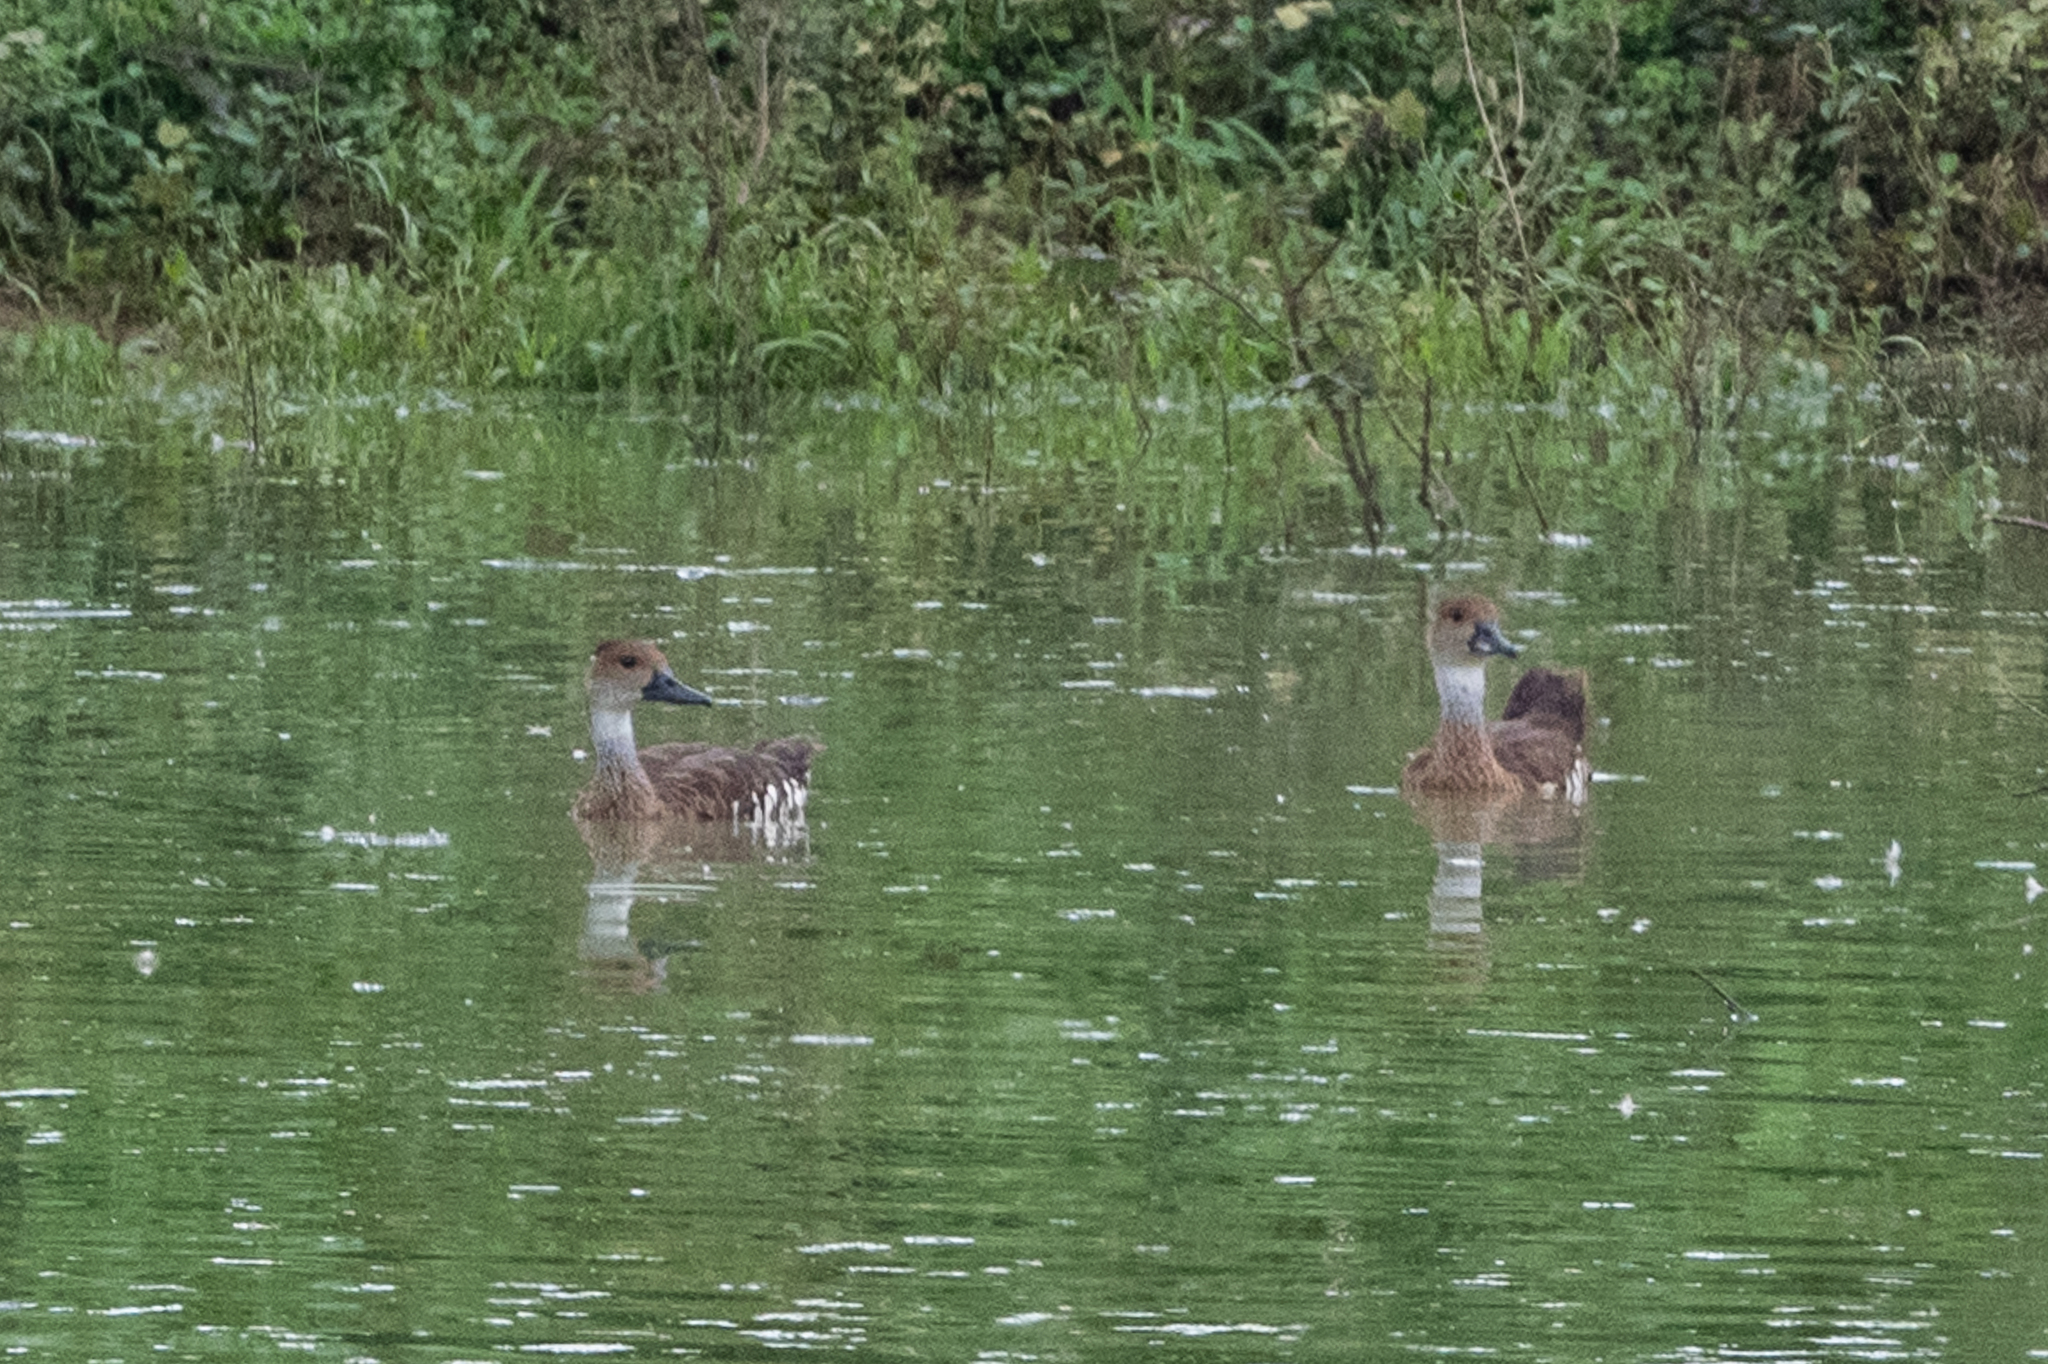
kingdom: Animalia
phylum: Chordata
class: Aves
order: Anseriformes
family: Anatidae
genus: Dendrocygna
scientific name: Dendrocygna arborea
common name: West indian whistling duck
